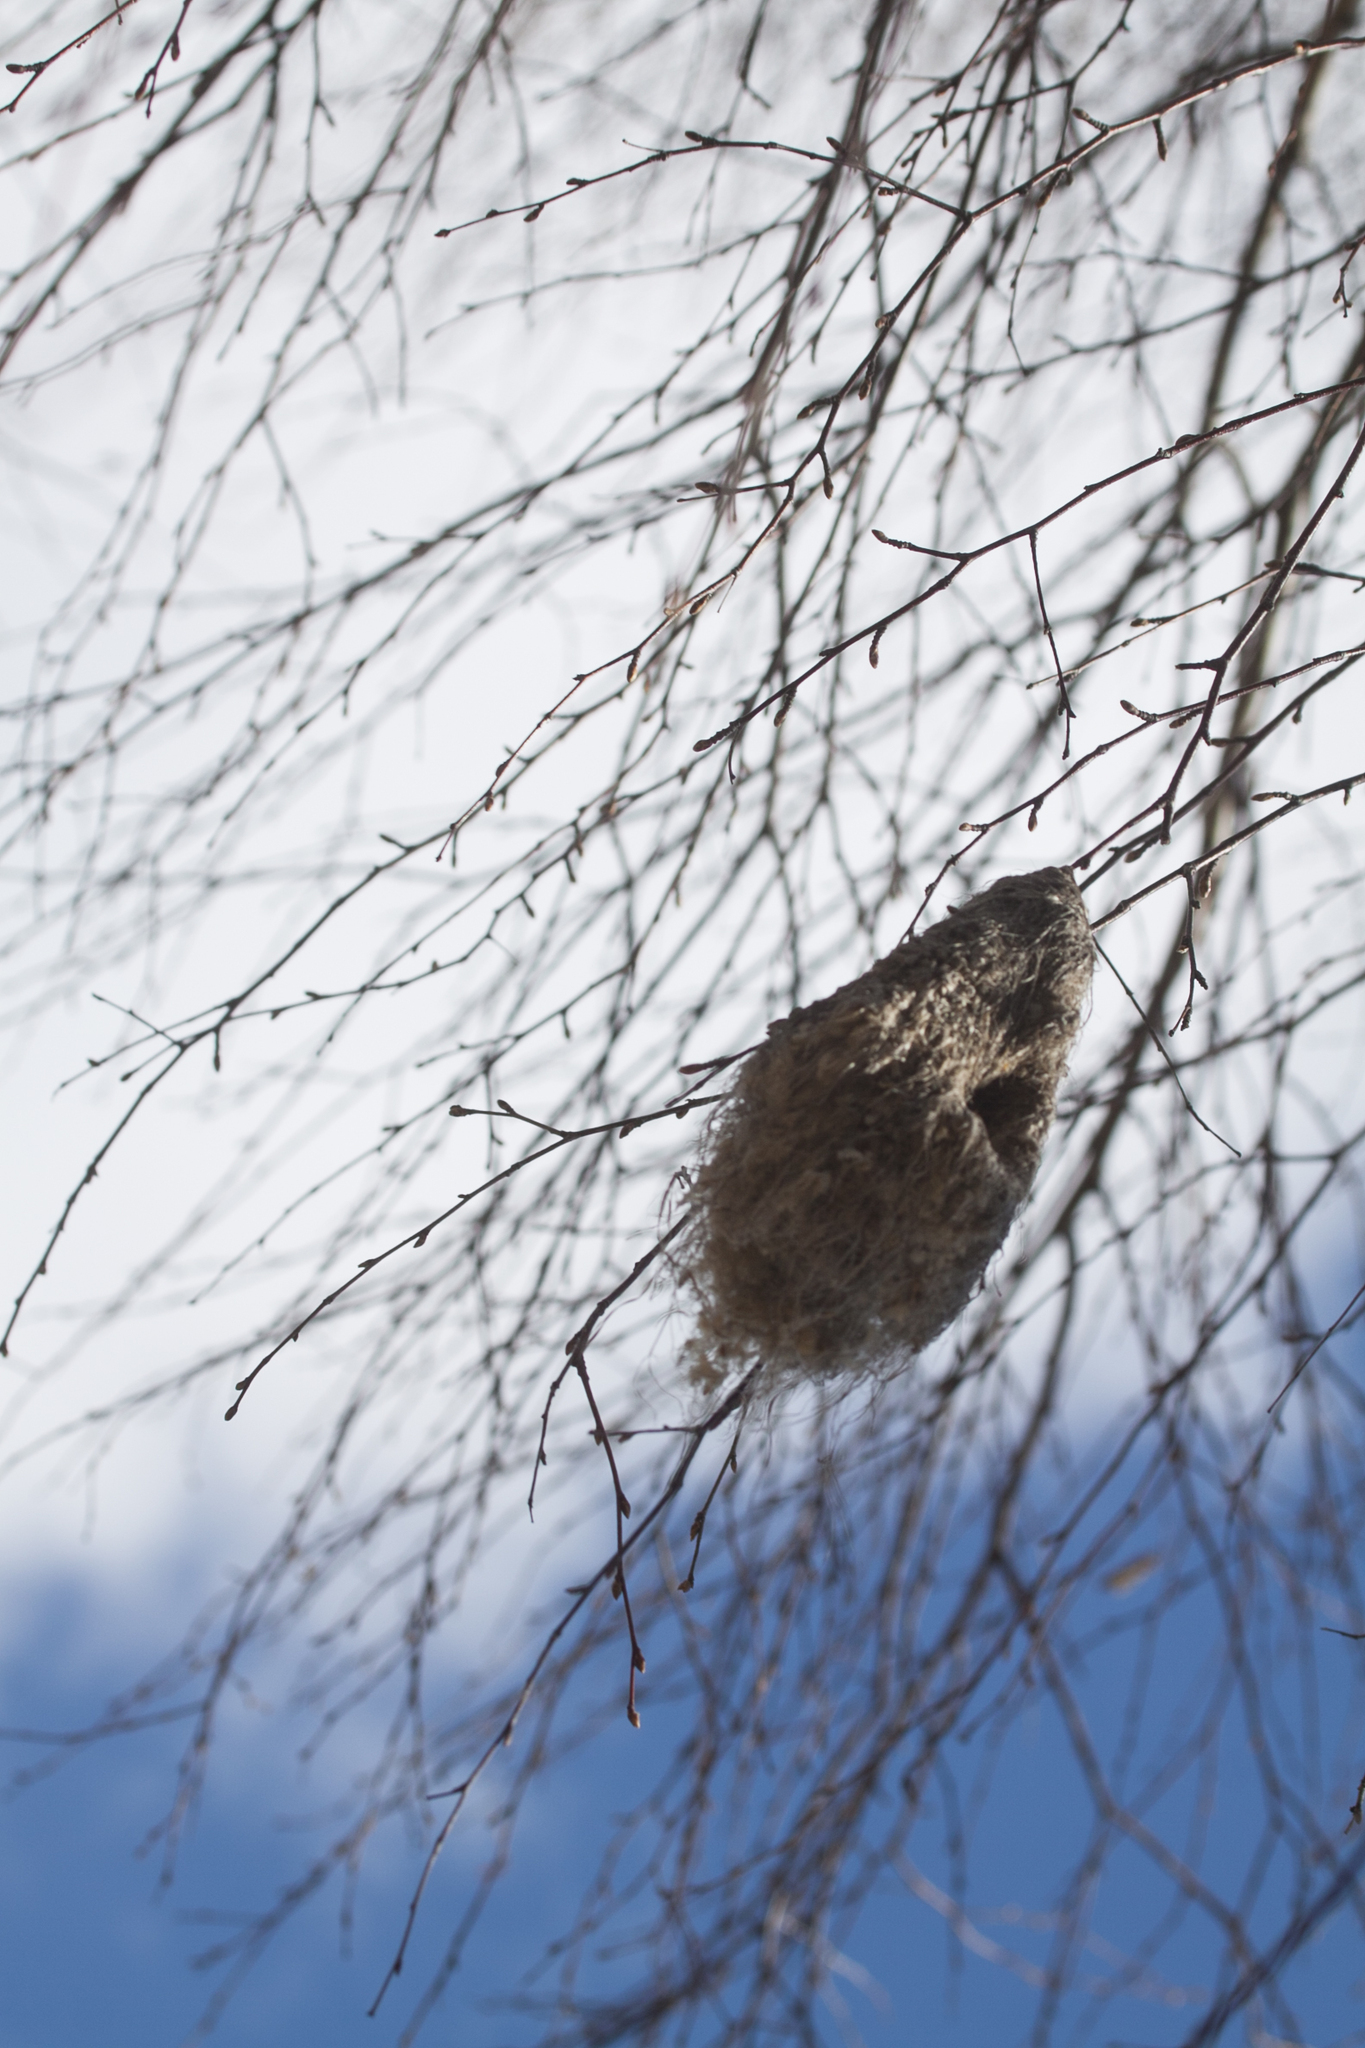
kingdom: Animalia
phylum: Chordata
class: Aves
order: Passeriformes
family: Remizidae
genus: Remiz
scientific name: Remiz pendulinus
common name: Eurasian penduline tit
